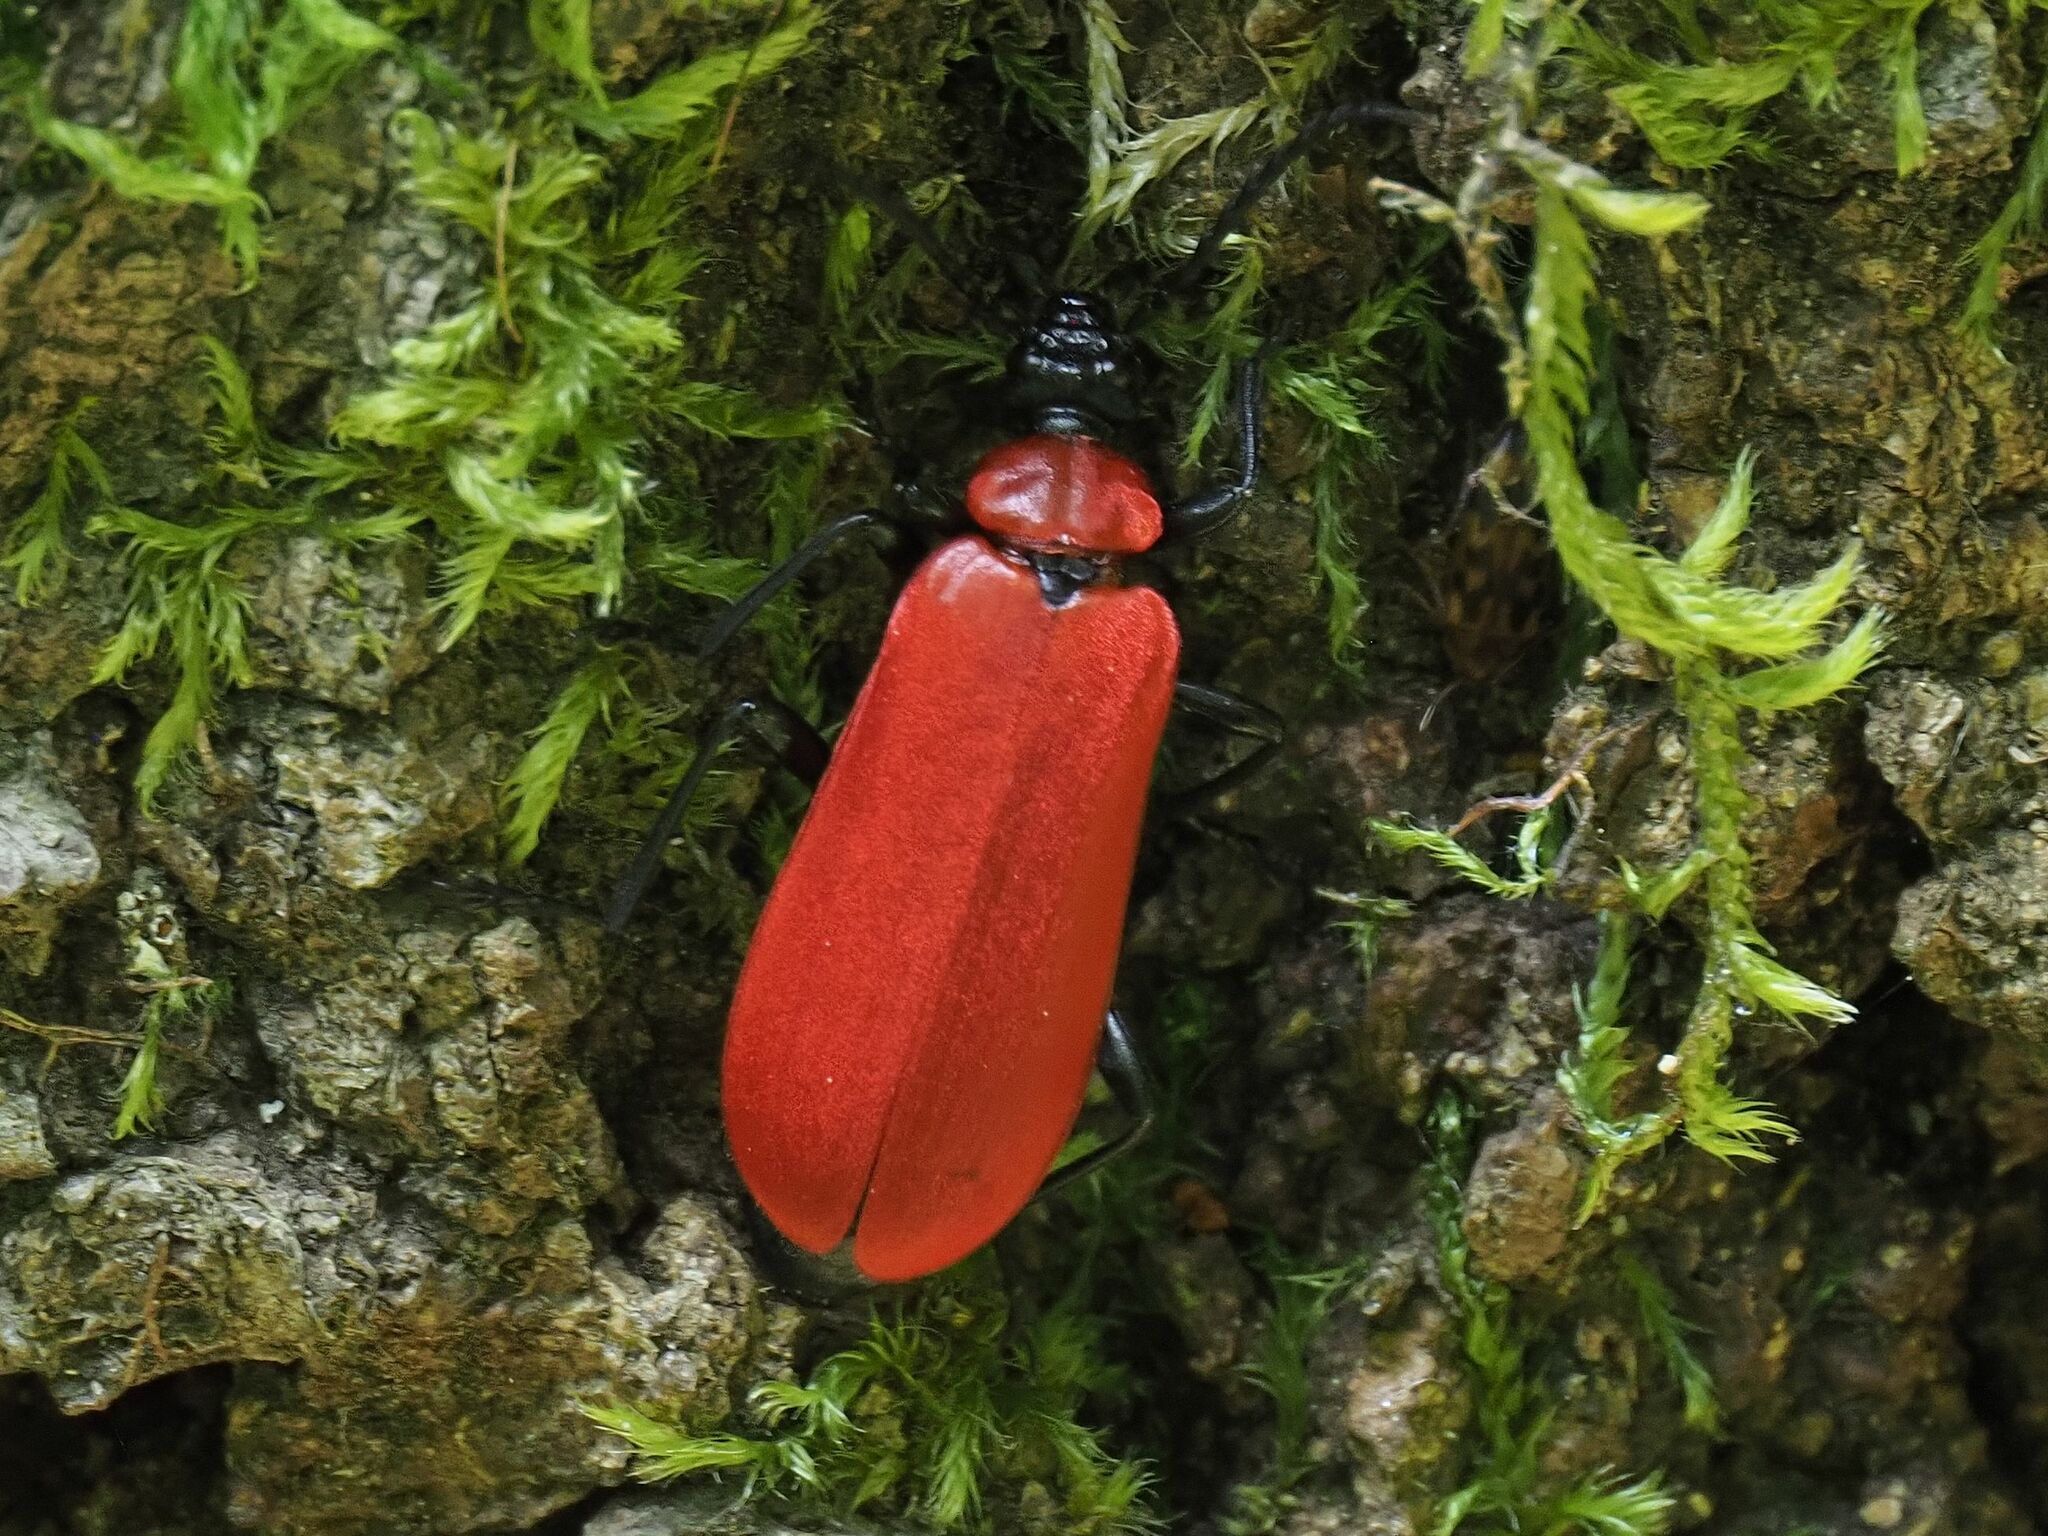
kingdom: Animalia
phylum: Arthropoda
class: Insecta
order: Coleoptera
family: Pyrochroidae
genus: Pyrochroa
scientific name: Pyrochroa coccinea
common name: Black-headed cardinal beetle
